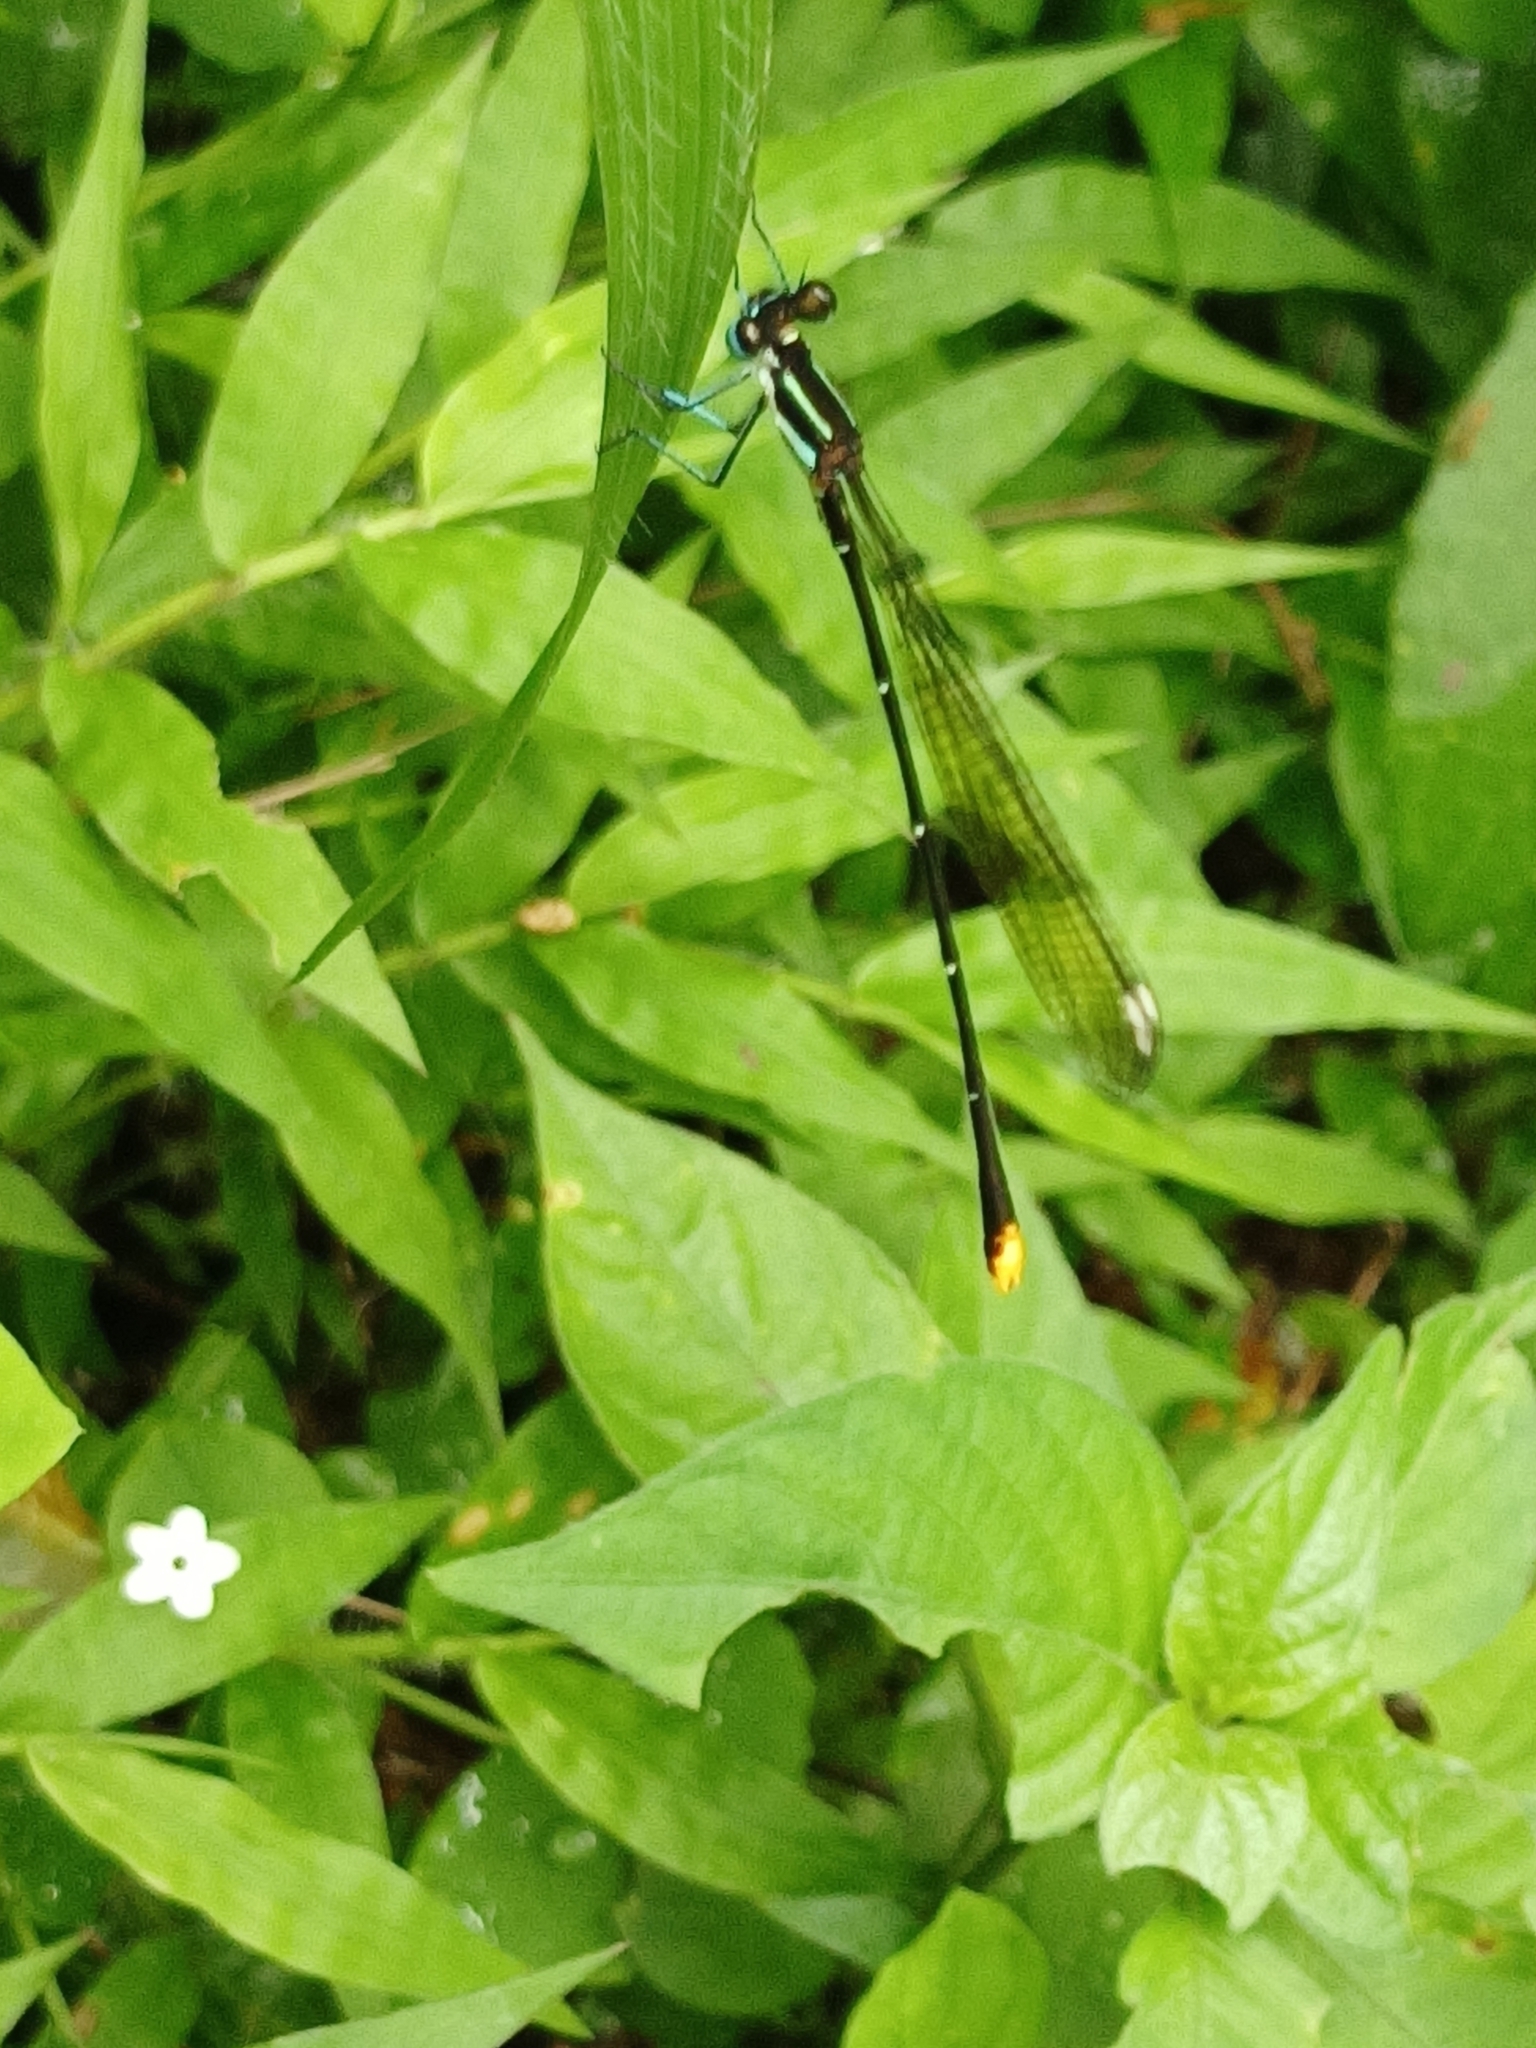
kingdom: Animalia
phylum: Arthropoda
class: Insecta
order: Odonata
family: Platycnemididae
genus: Allocnemis
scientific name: Allocnemis leucosticta
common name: Goldtail
